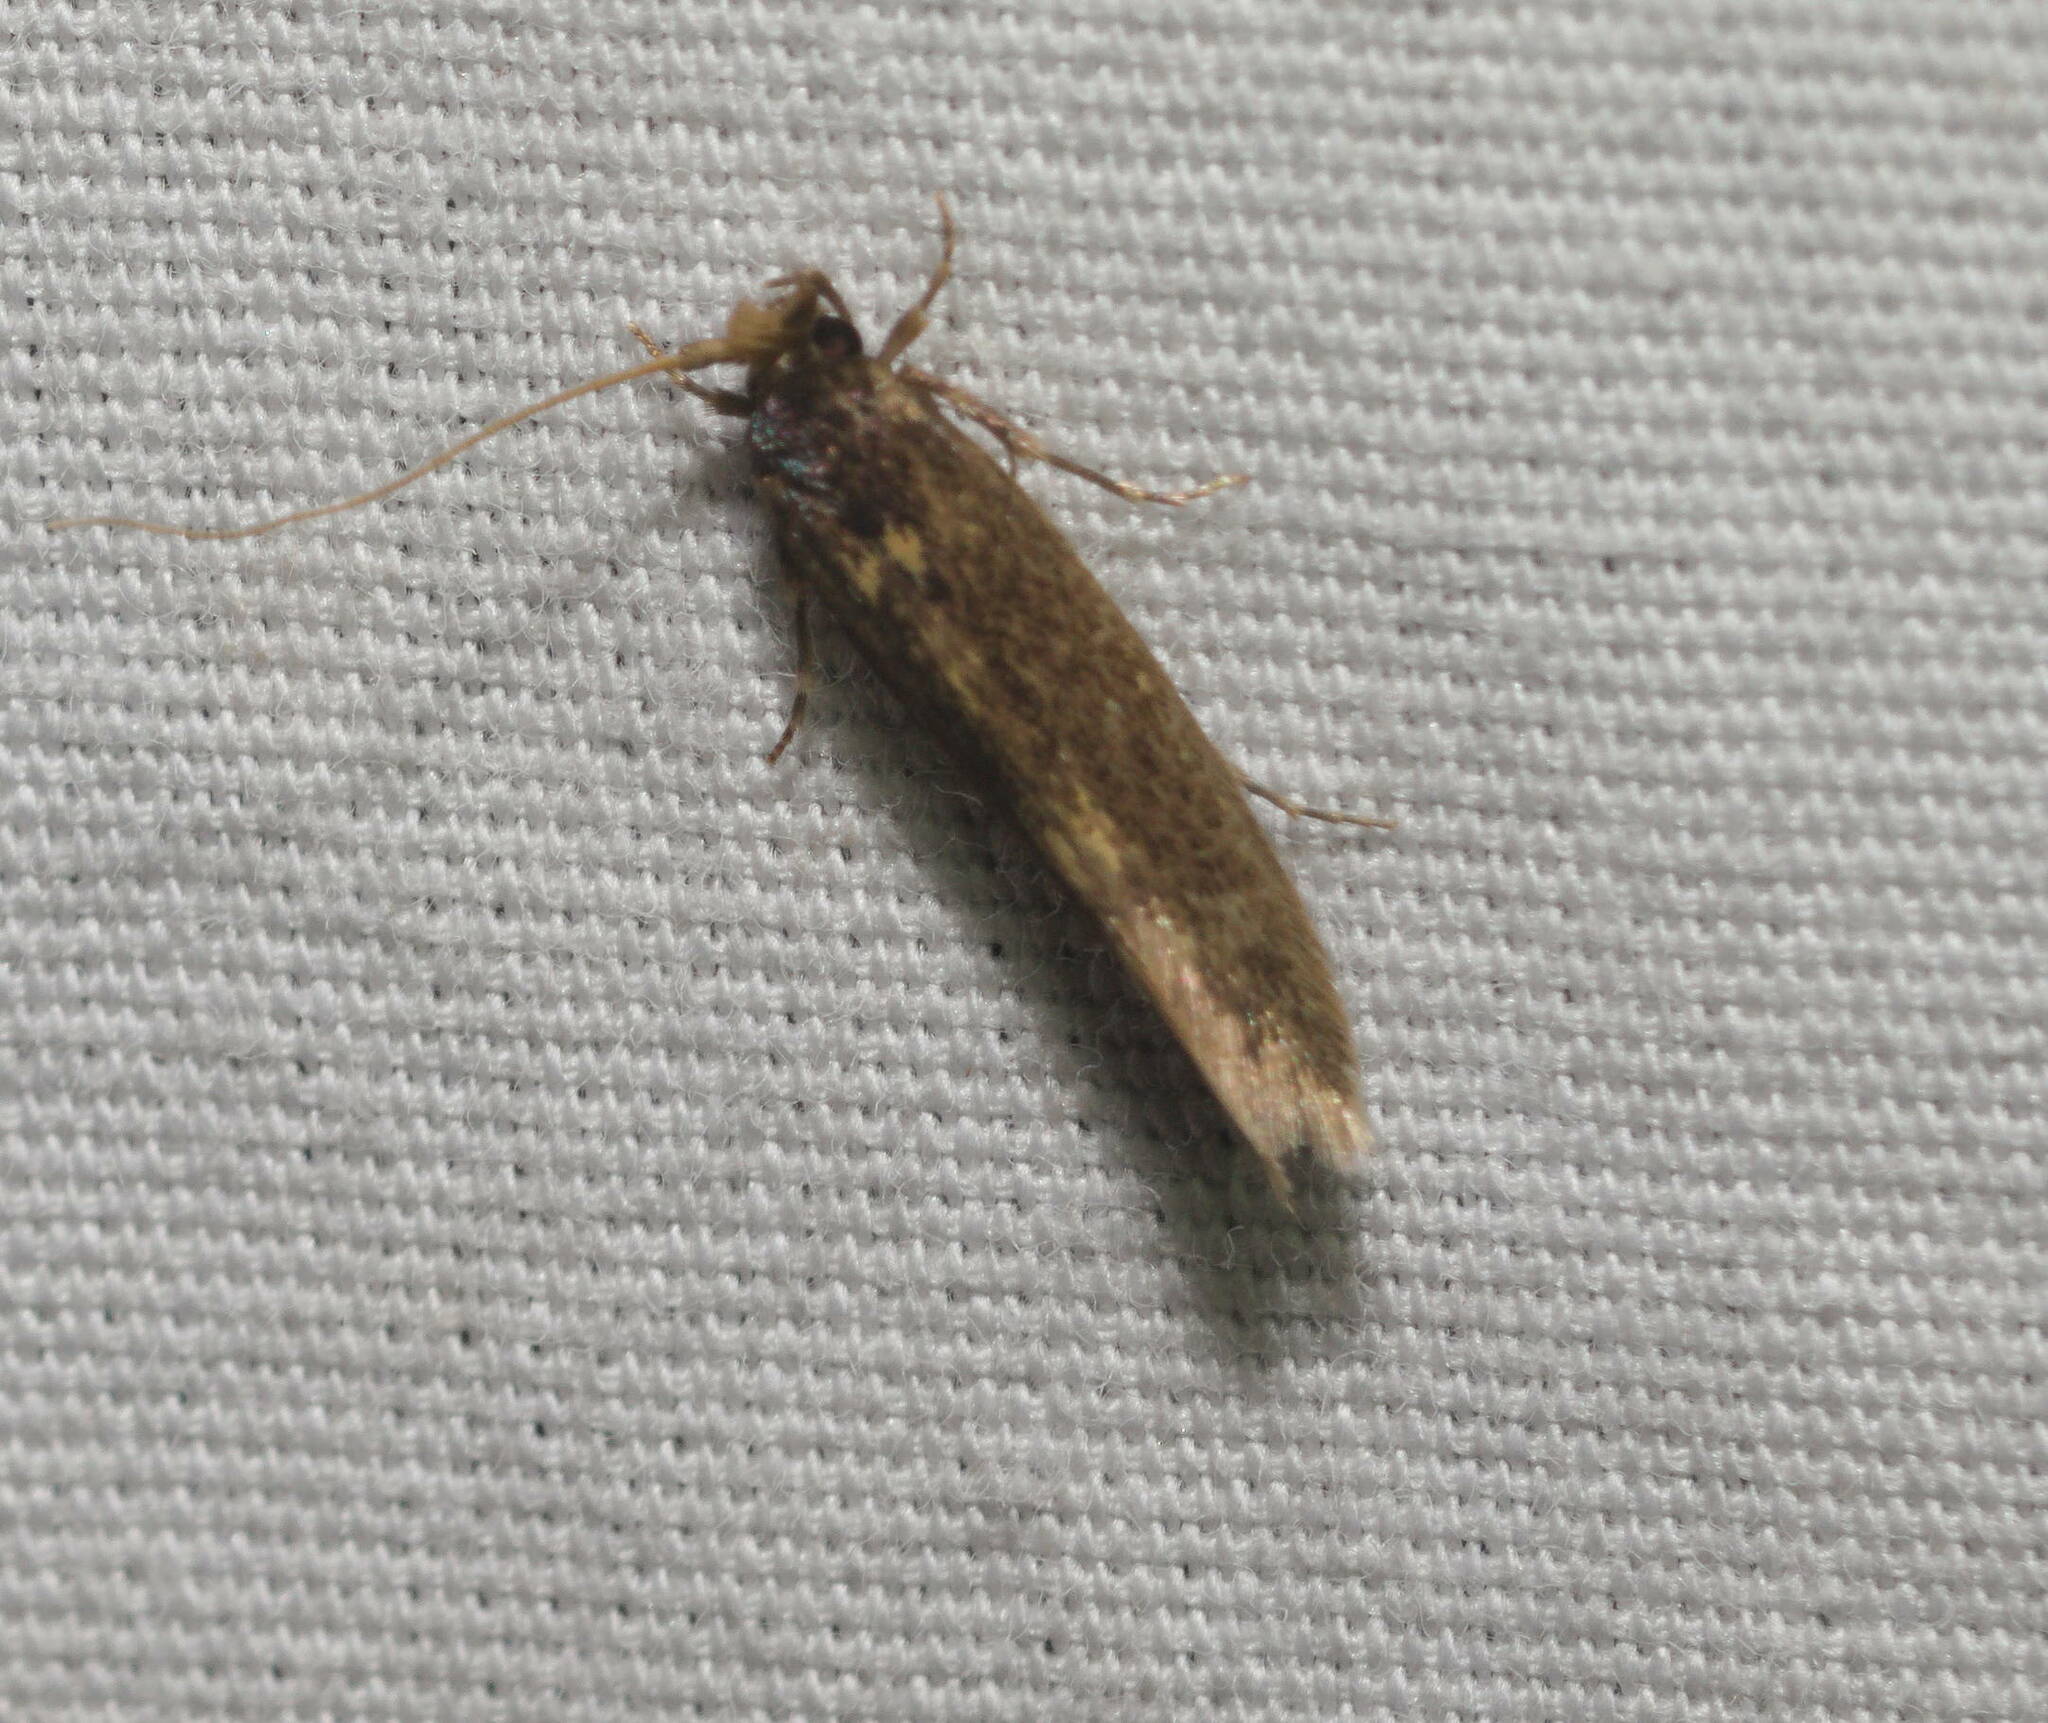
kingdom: Animalia
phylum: Arthropoda
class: Insecta
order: Lepidoptera
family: Tineidae
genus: Opogona
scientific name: Opogona omoscopa
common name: Moth
